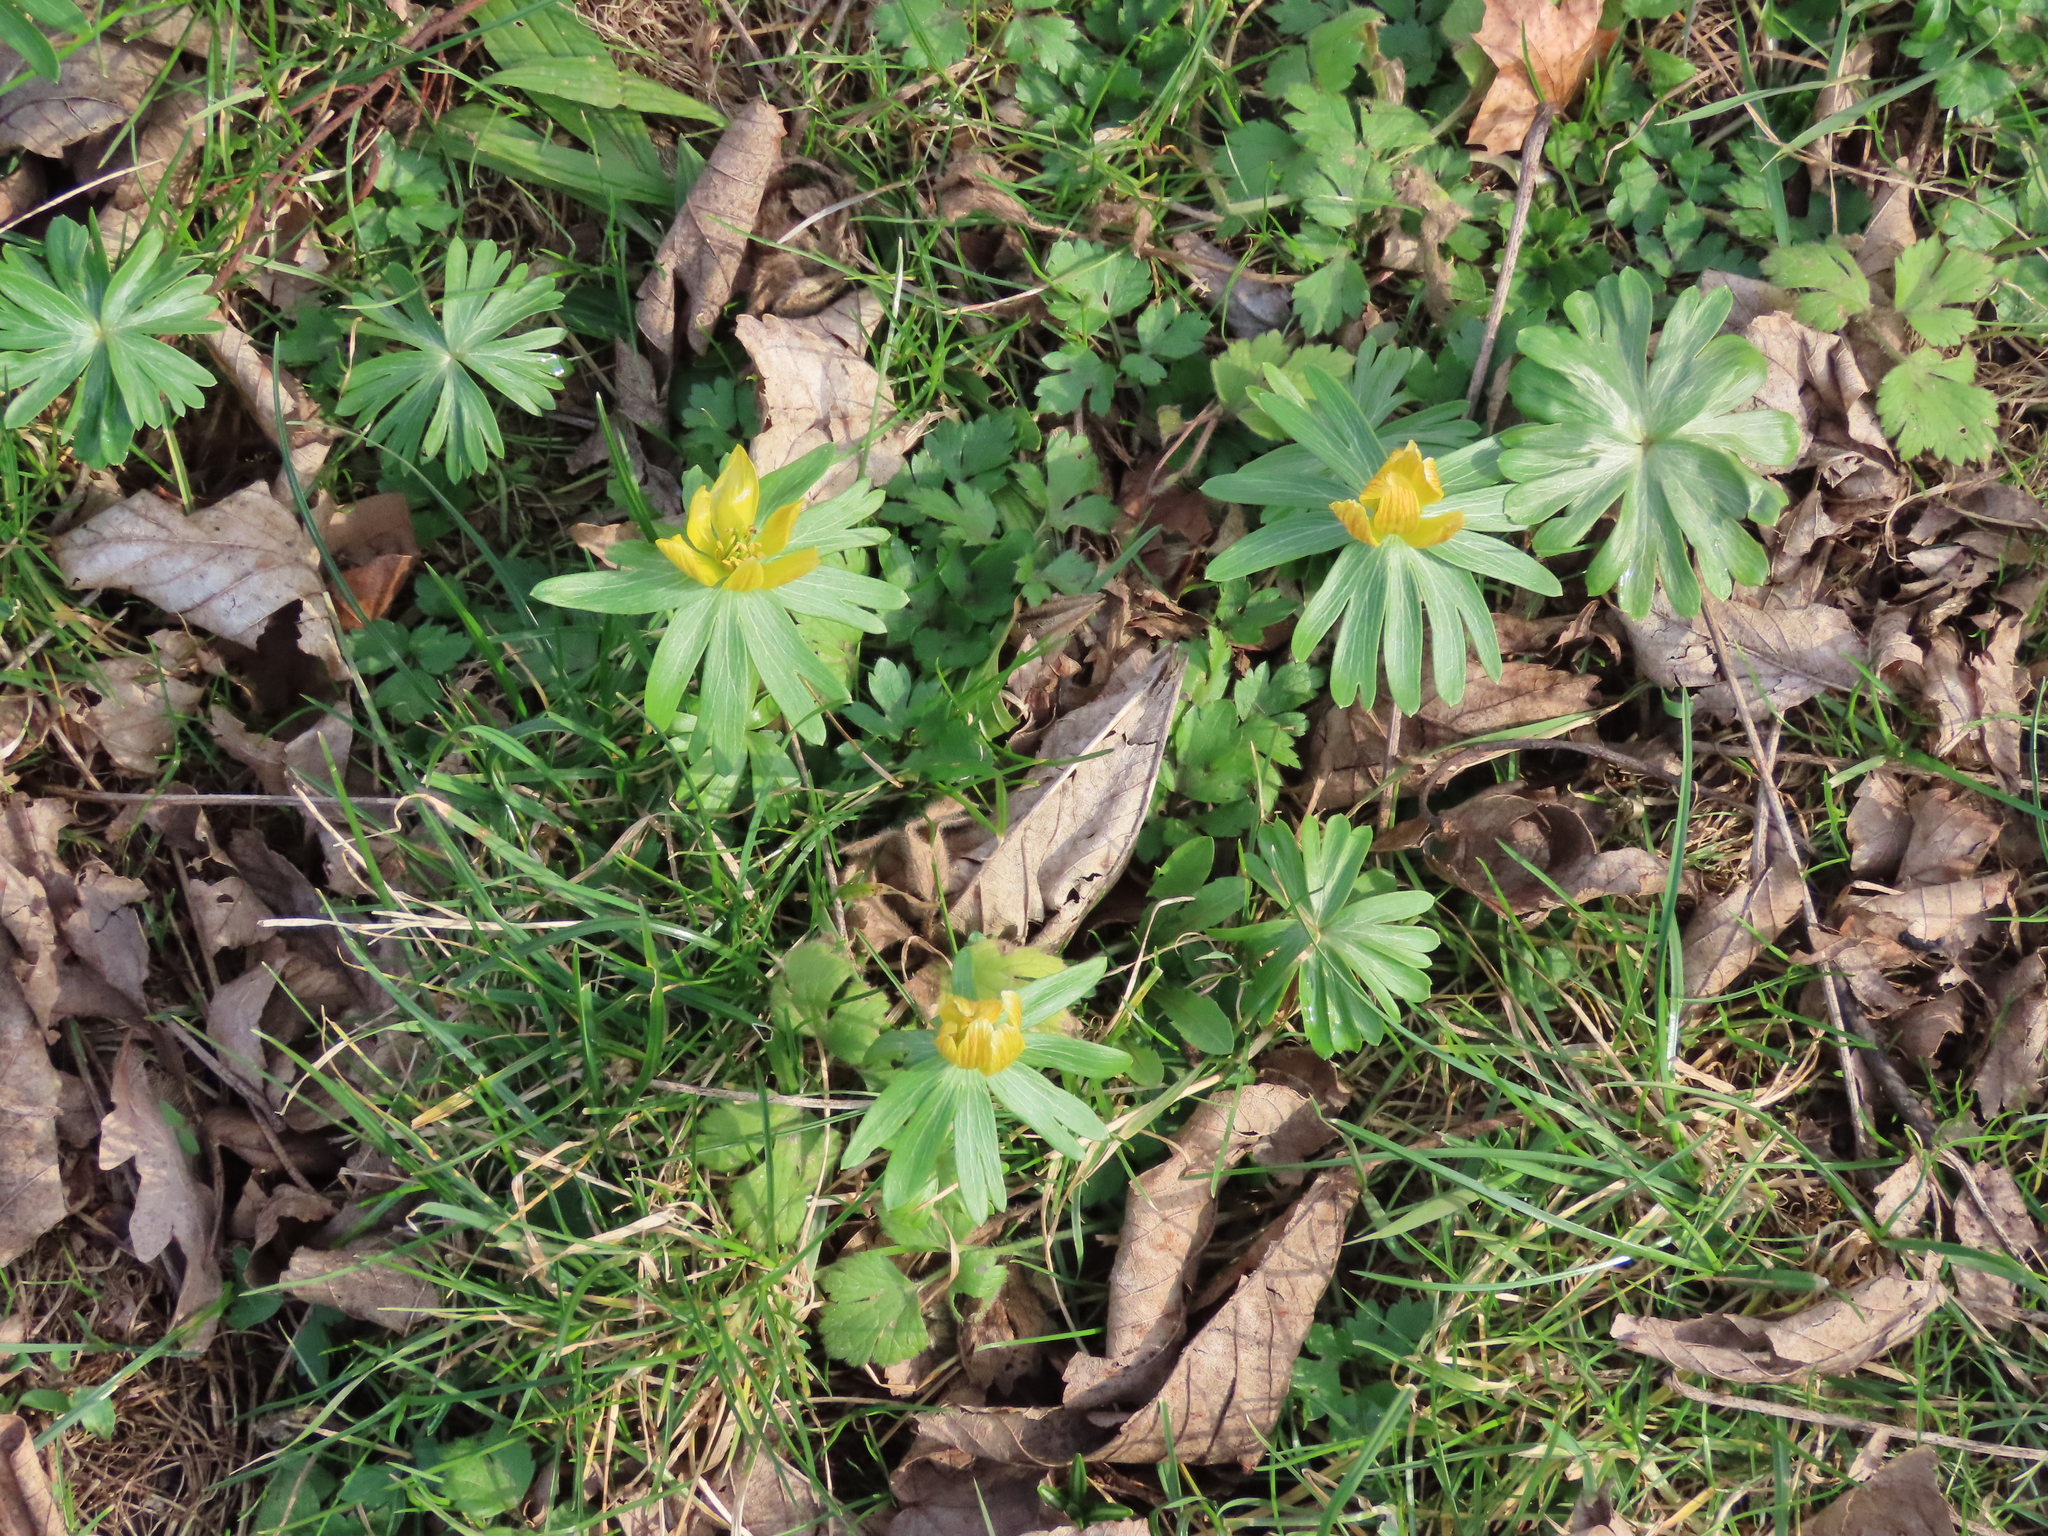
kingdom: Plantae
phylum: Tracheophyta
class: Magnoliopsida
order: Ranunculales
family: Ranunculaceae
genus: Eranthis
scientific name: Eranthis hyemalis
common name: Winter aconite
